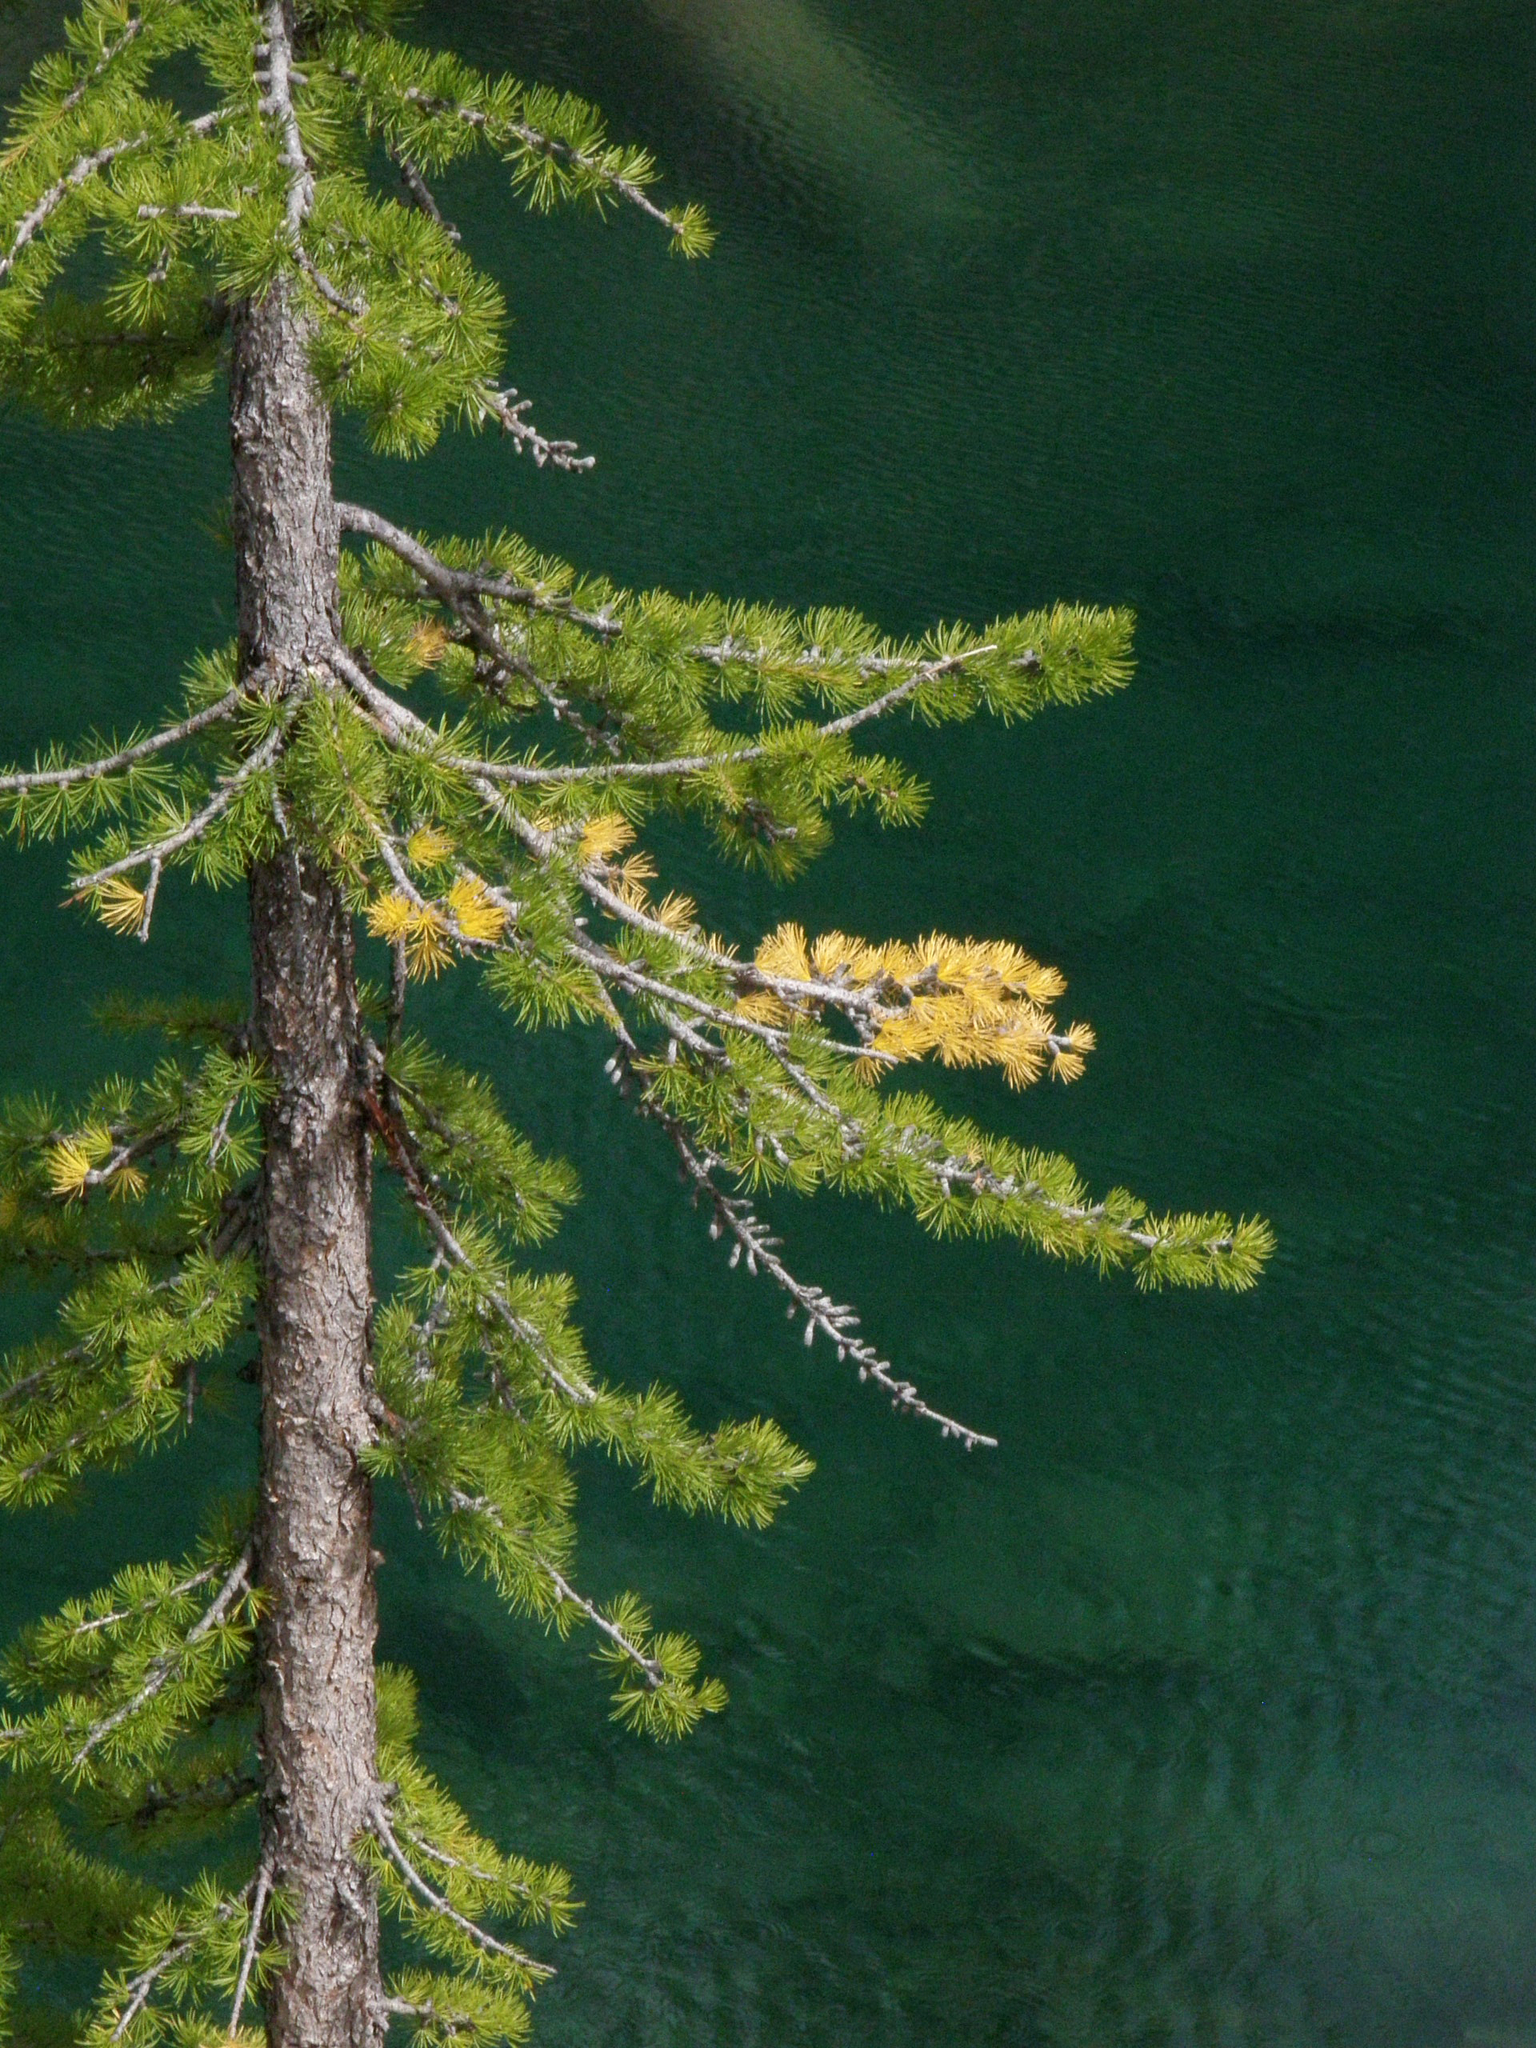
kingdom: Plantae
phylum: Tracheophyta
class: Pinopsida
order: Pinales
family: Pinaceae
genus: Larix
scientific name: Larix lyallii
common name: Alpine larch
